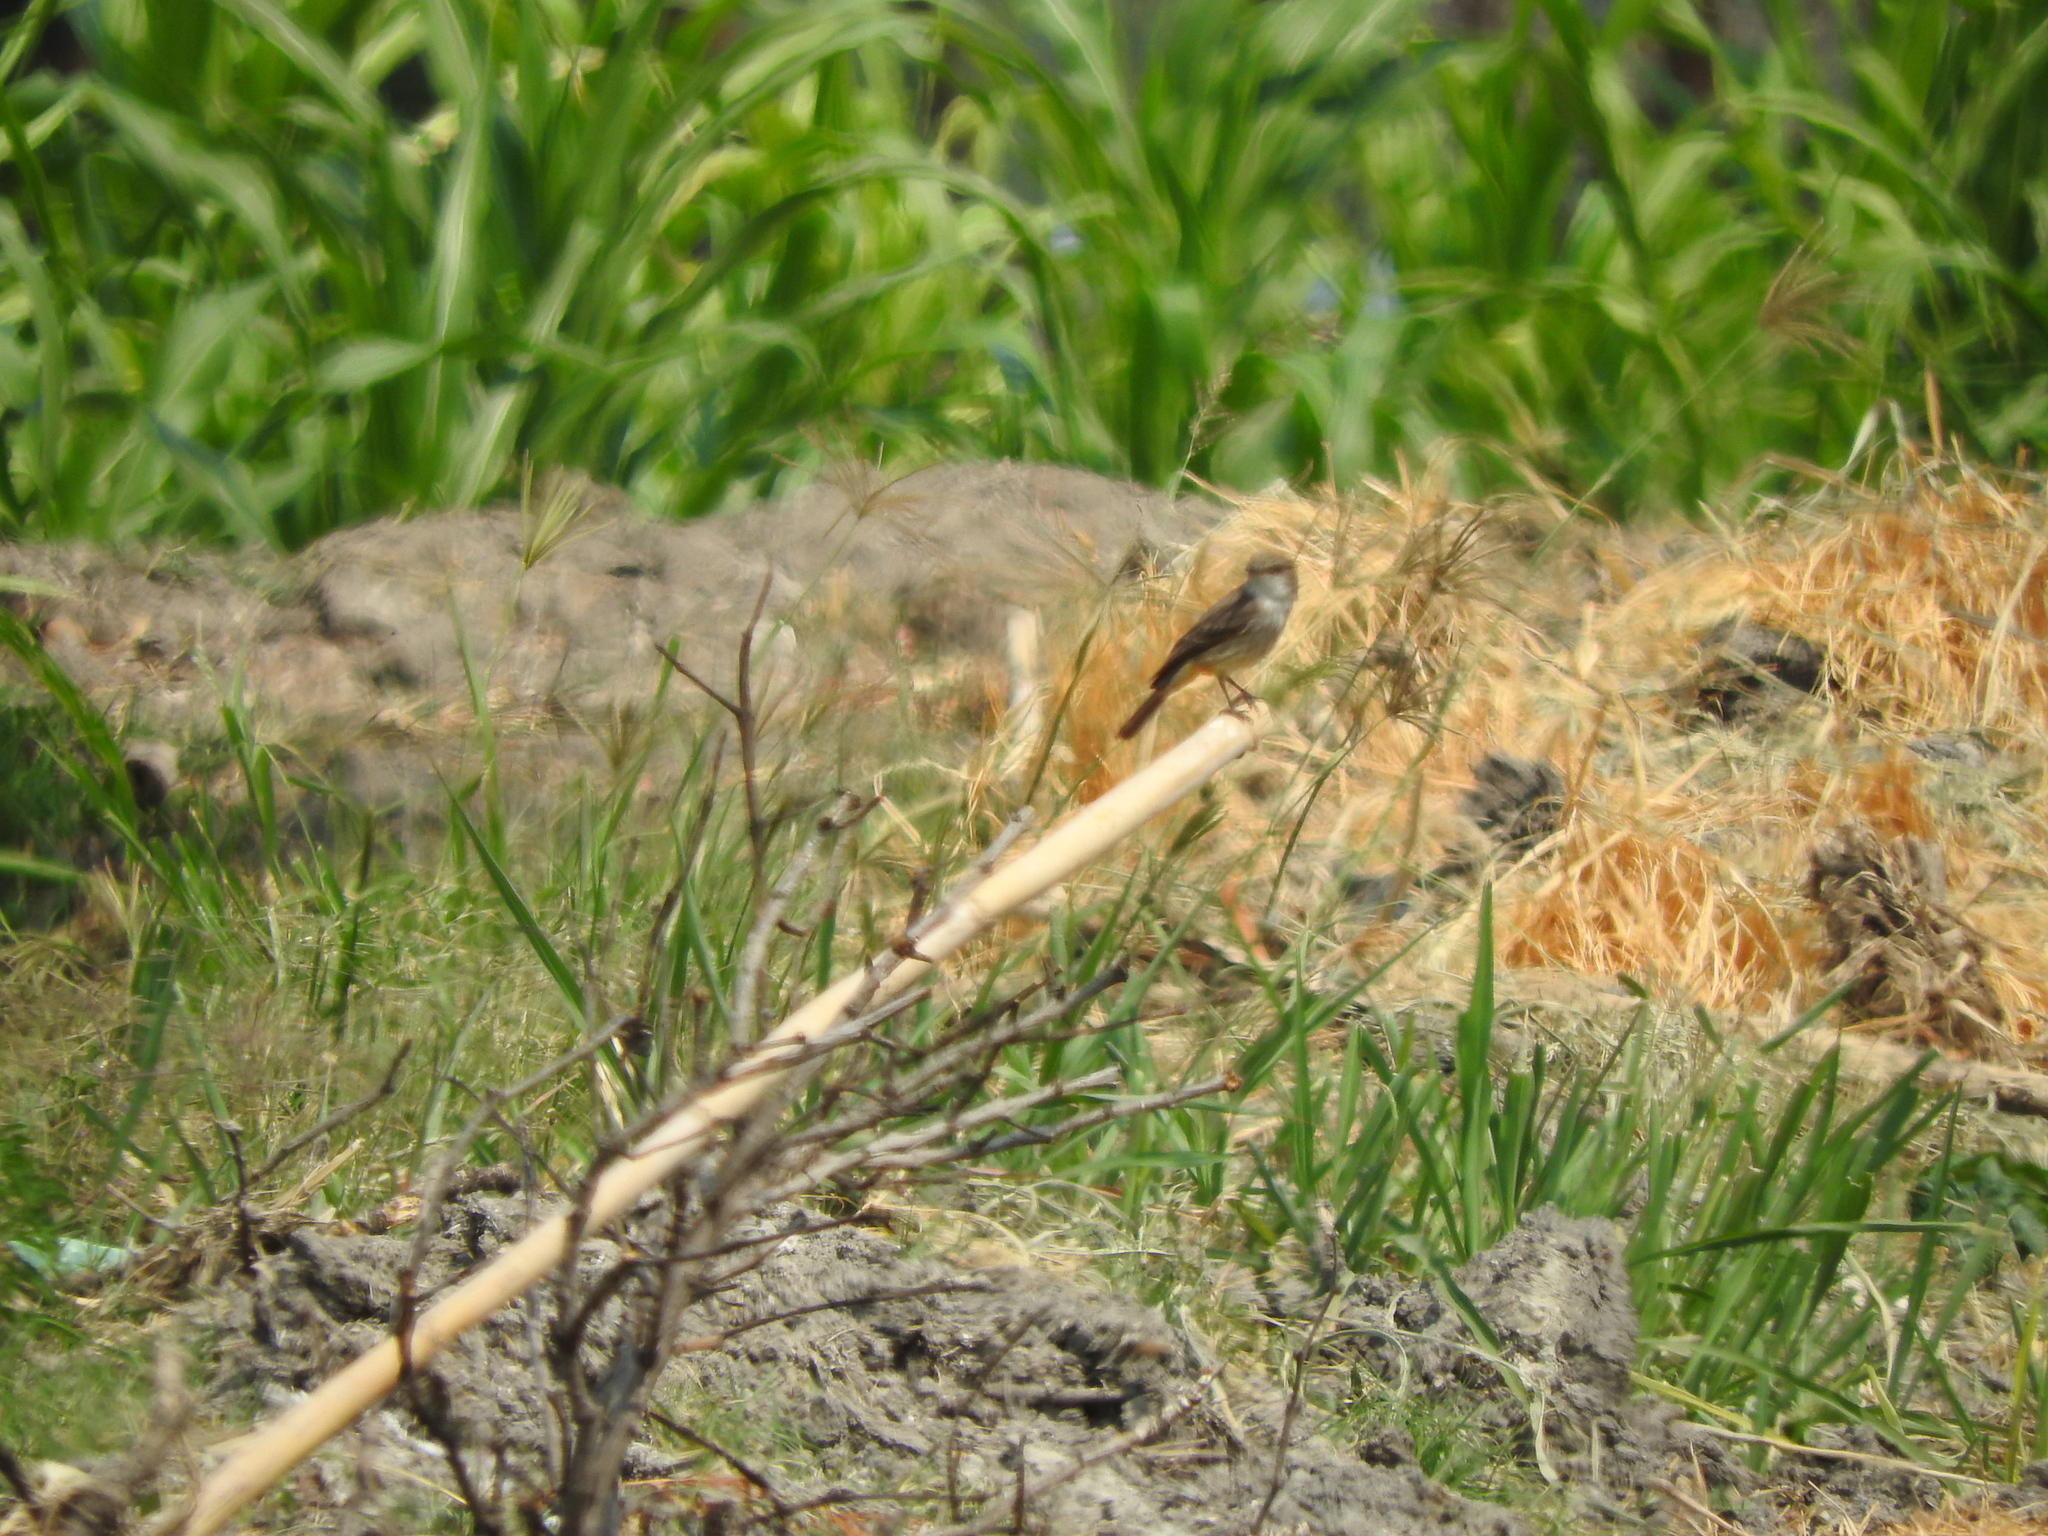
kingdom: Animalia
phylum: Chordata
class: Aves
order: Passeriformes
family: Tyrannidae
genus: Pyrocephalus
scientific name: Pyrocephalus rubinus
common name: Vermilion flycatcher
